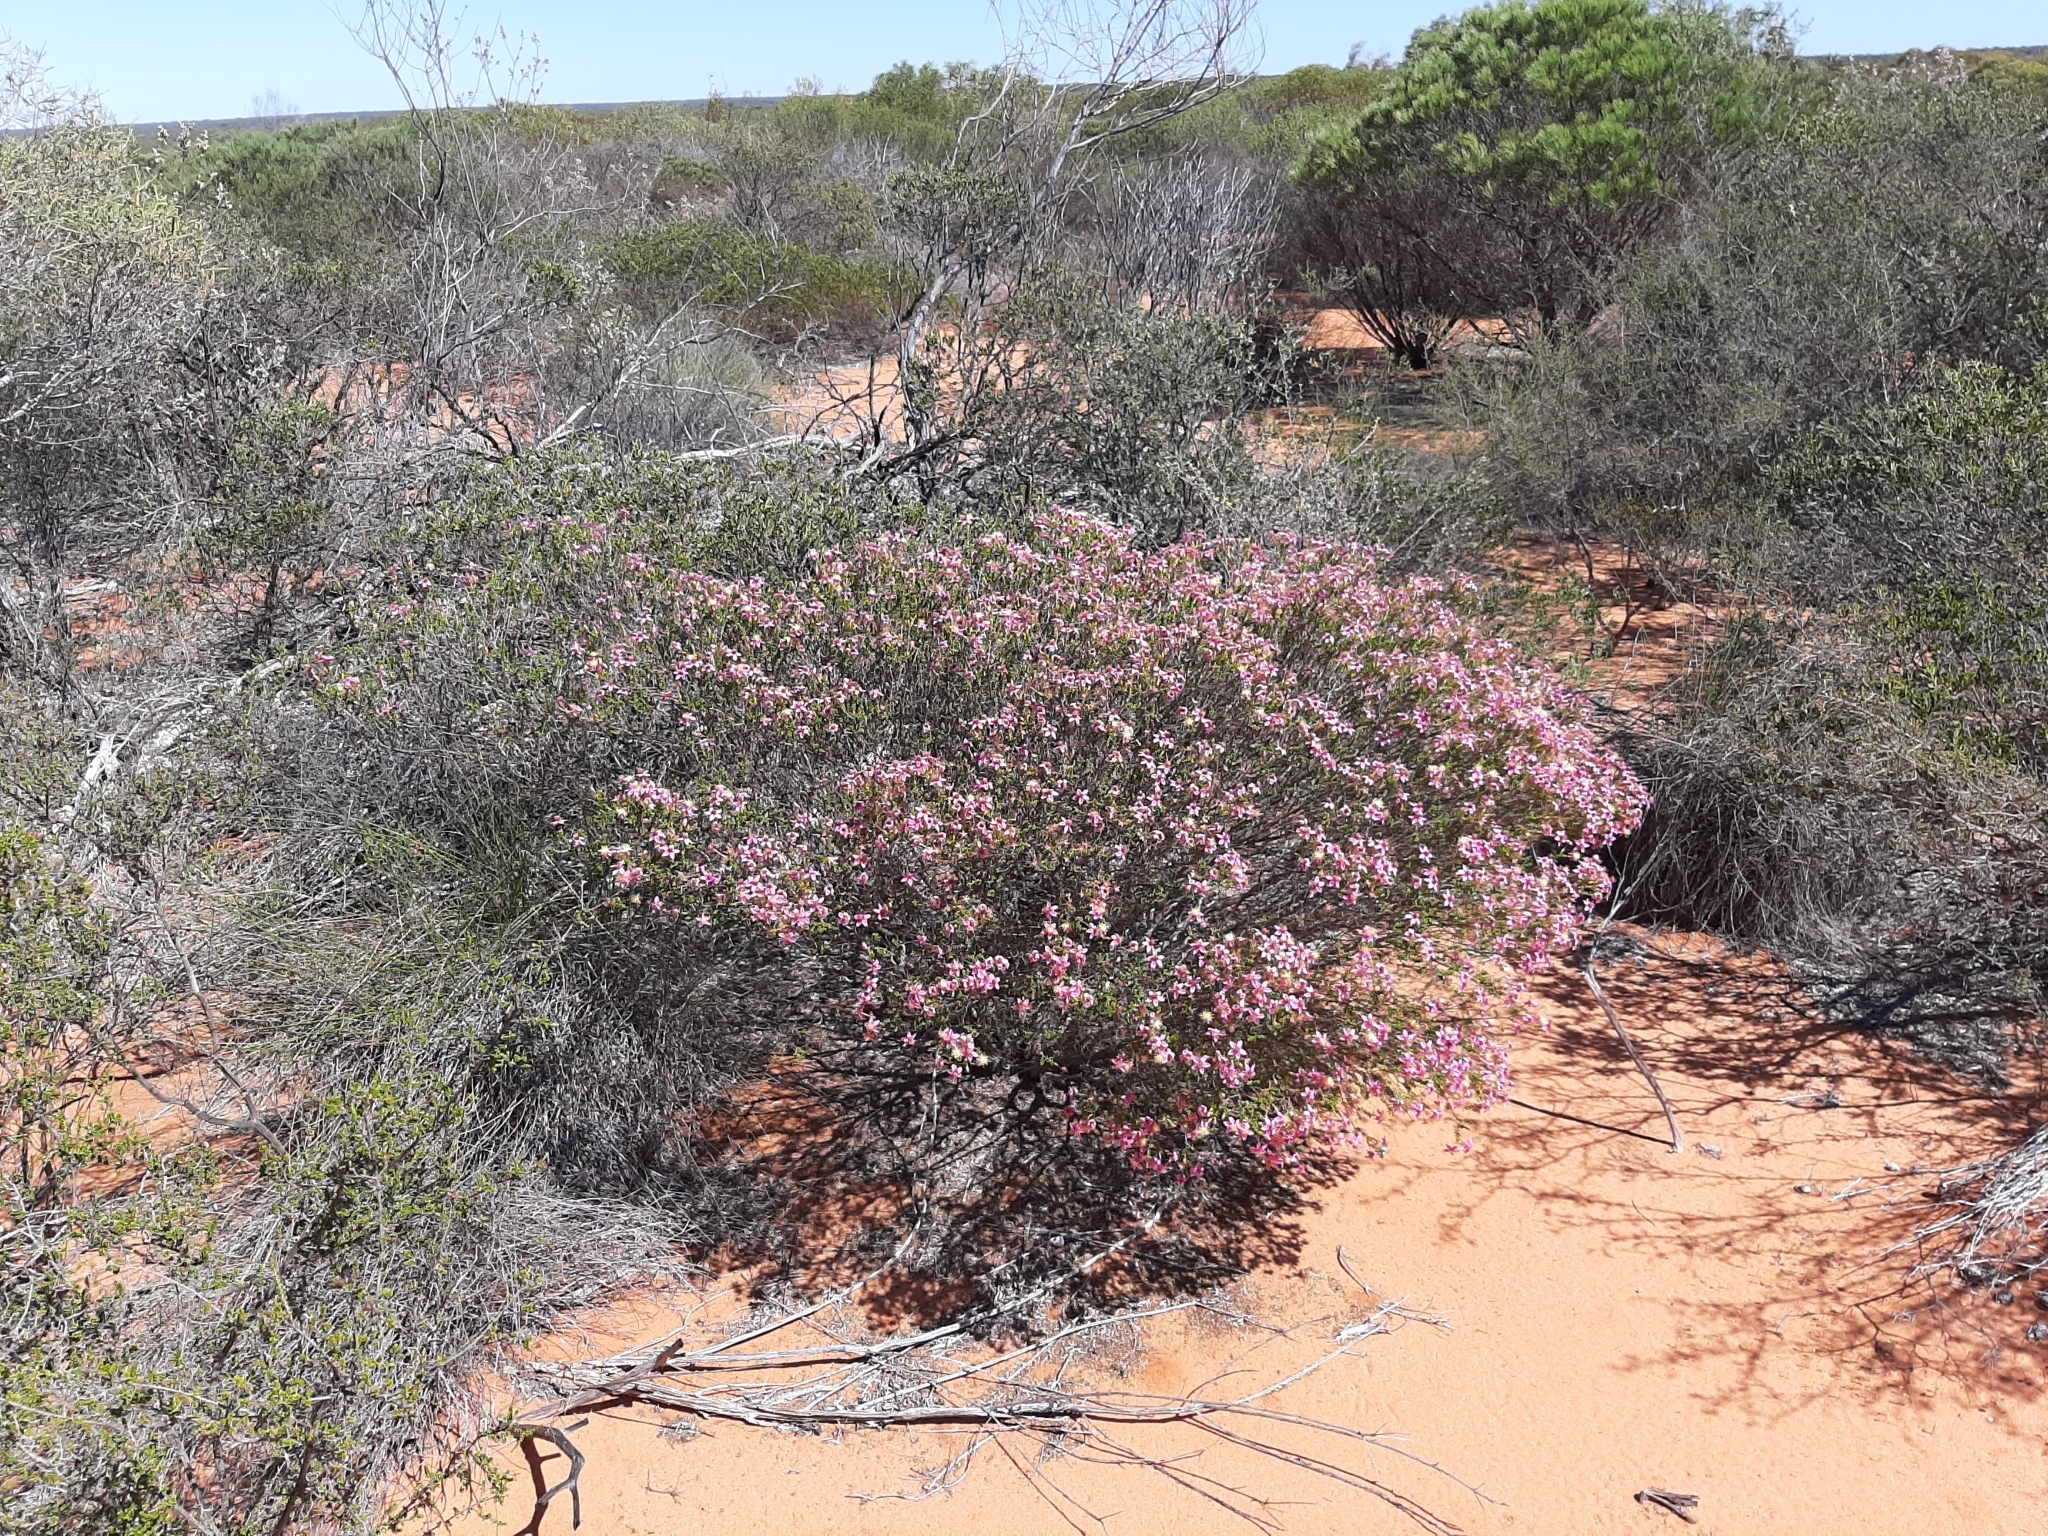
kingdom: Plantae
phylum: Tracheophyta
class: Magnoliopsida
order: Myrtales
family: Myrtaceae
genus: Calytrix
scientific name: Calytrix brevifolia
